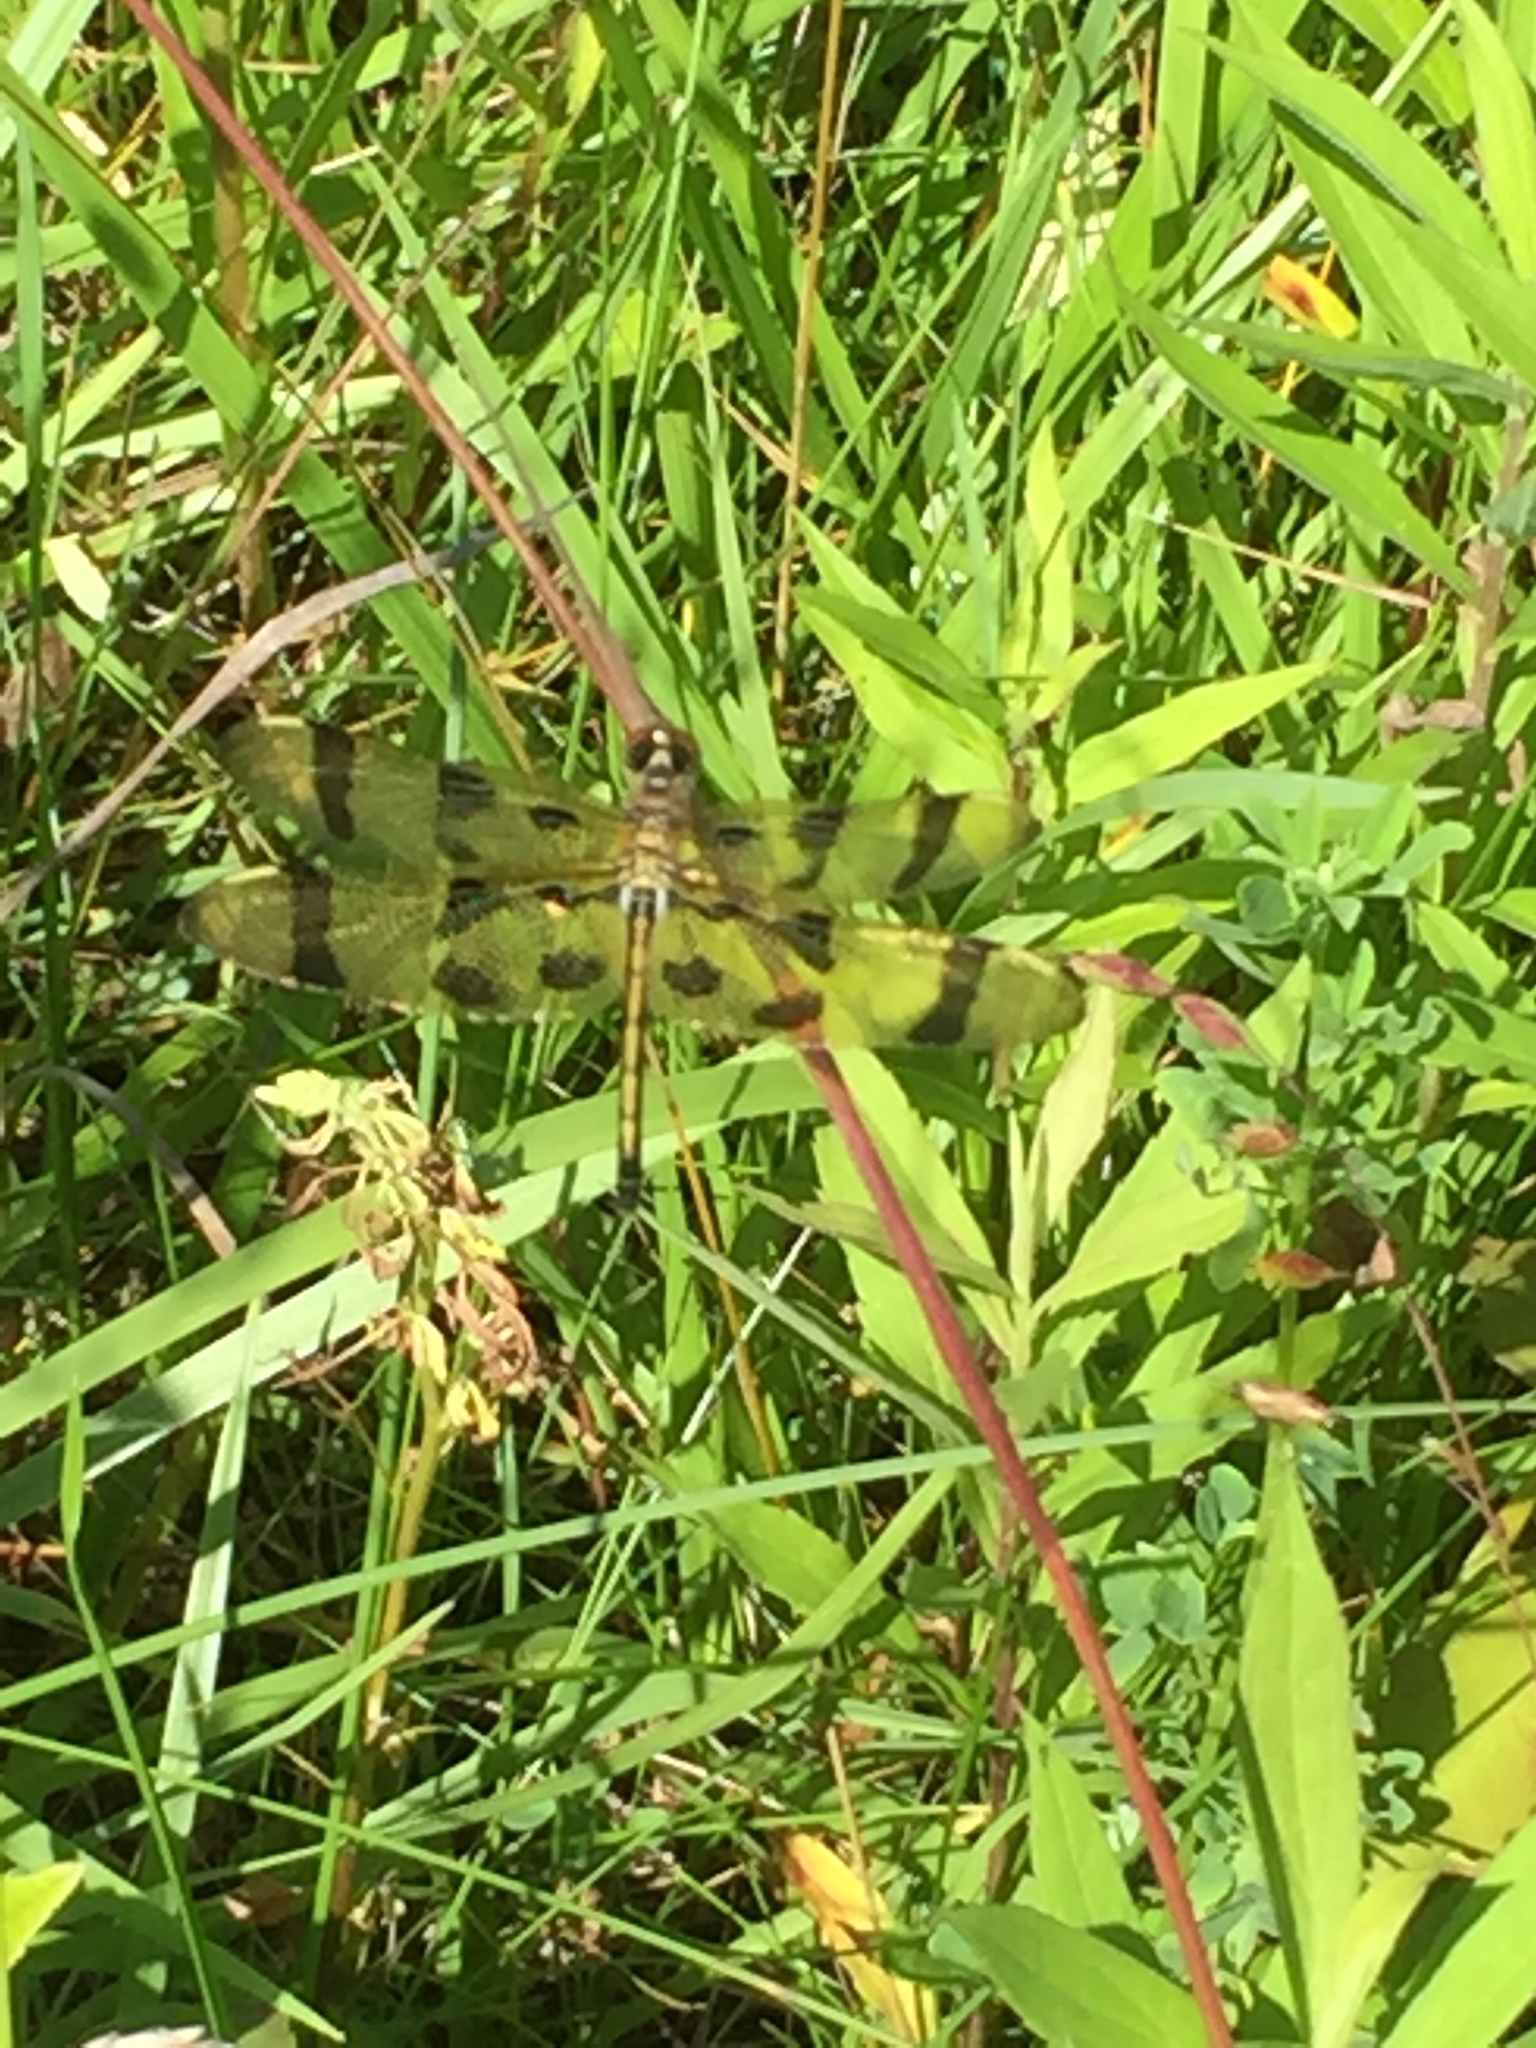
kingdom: Animalia
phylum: Arthropoda
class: Insecta
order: Odonata
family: Libellulidae
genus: Celithemis
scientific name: Celithemis eponina
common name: Halloween pennant
